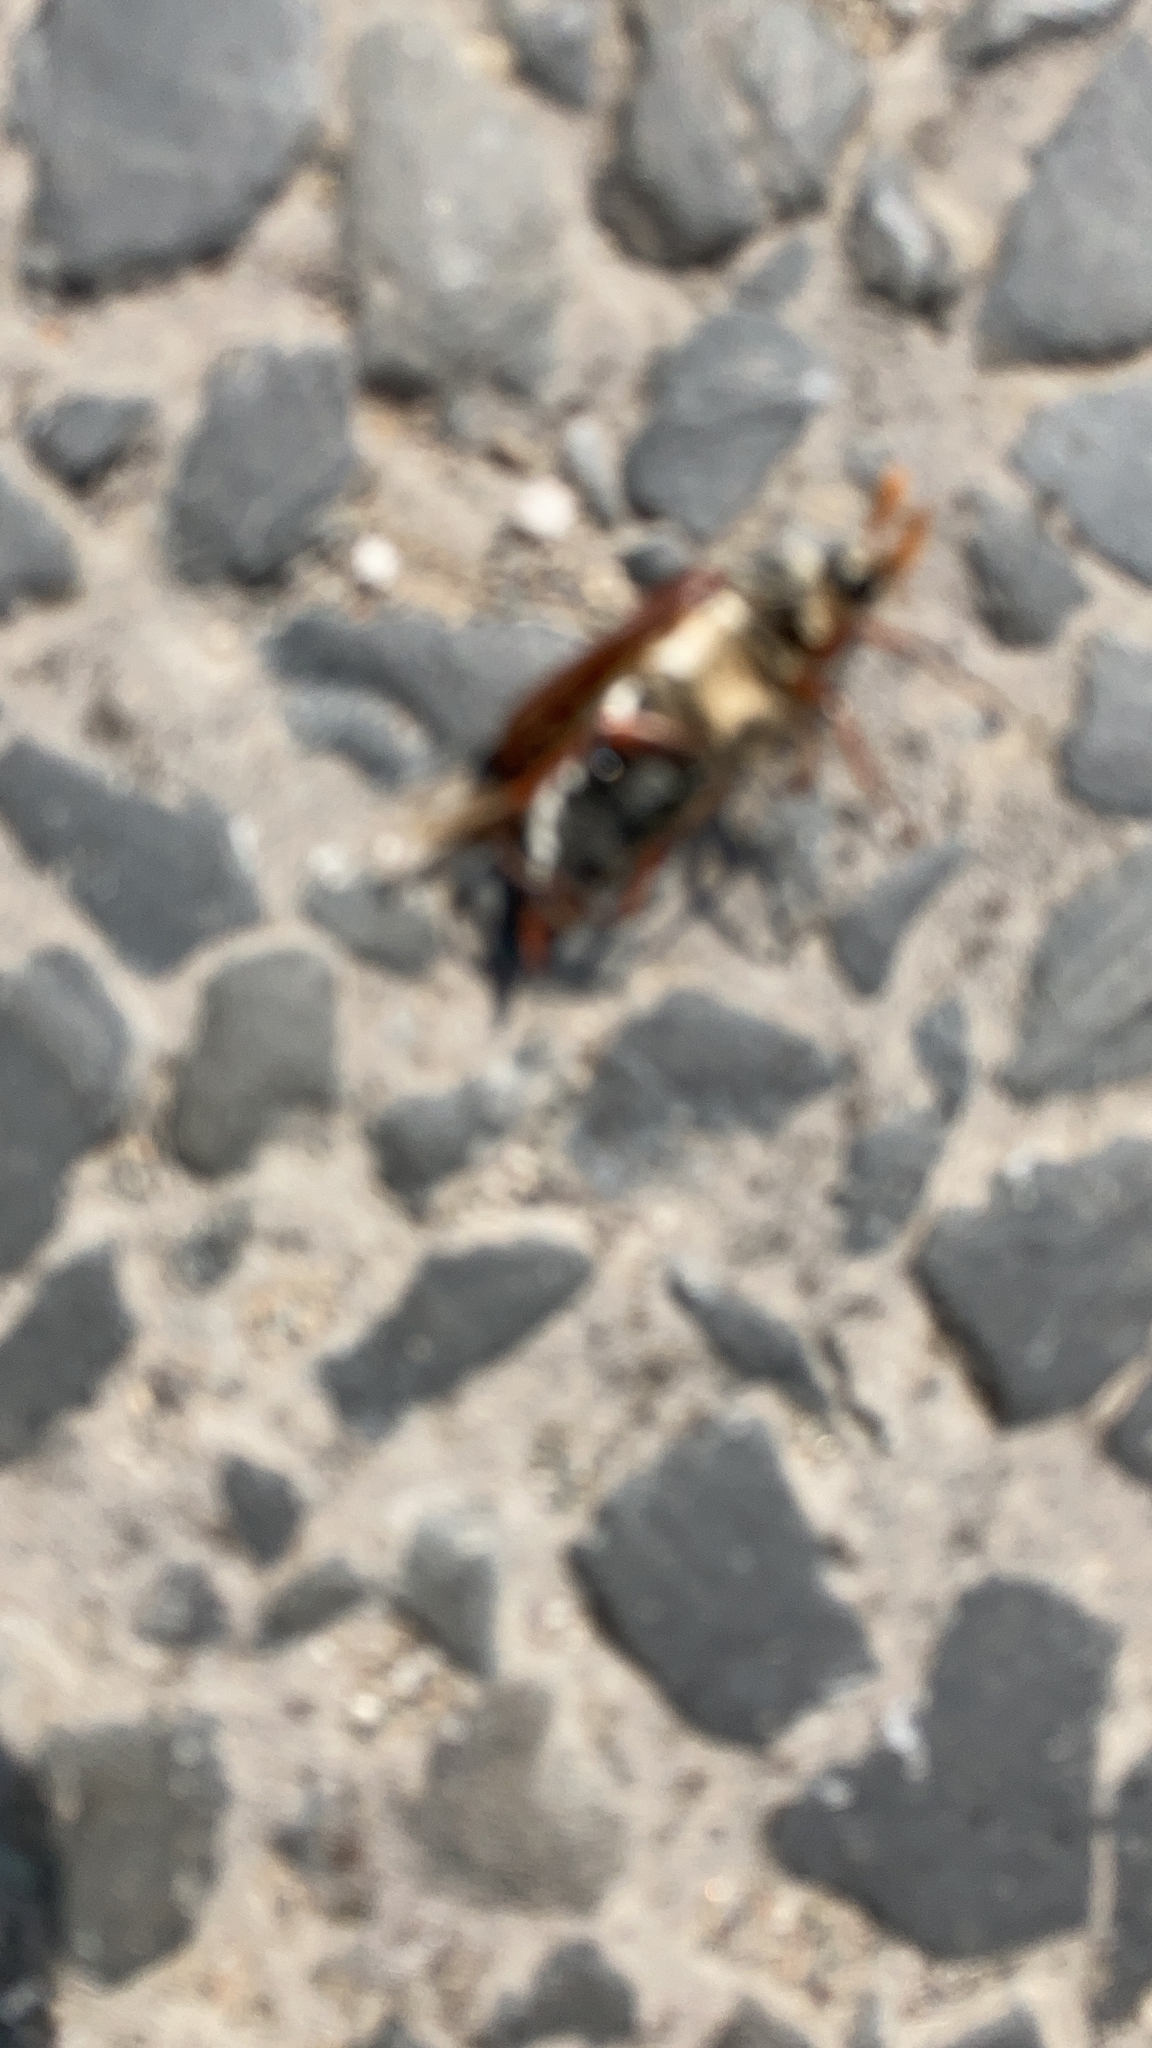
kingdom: Animalia
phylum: Arthropoda
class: Insecta
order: Coleoptera
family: Scarabaeidae
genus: Melolontha
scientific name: Melolontha melolontha
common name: Cockchafer maybeetle
